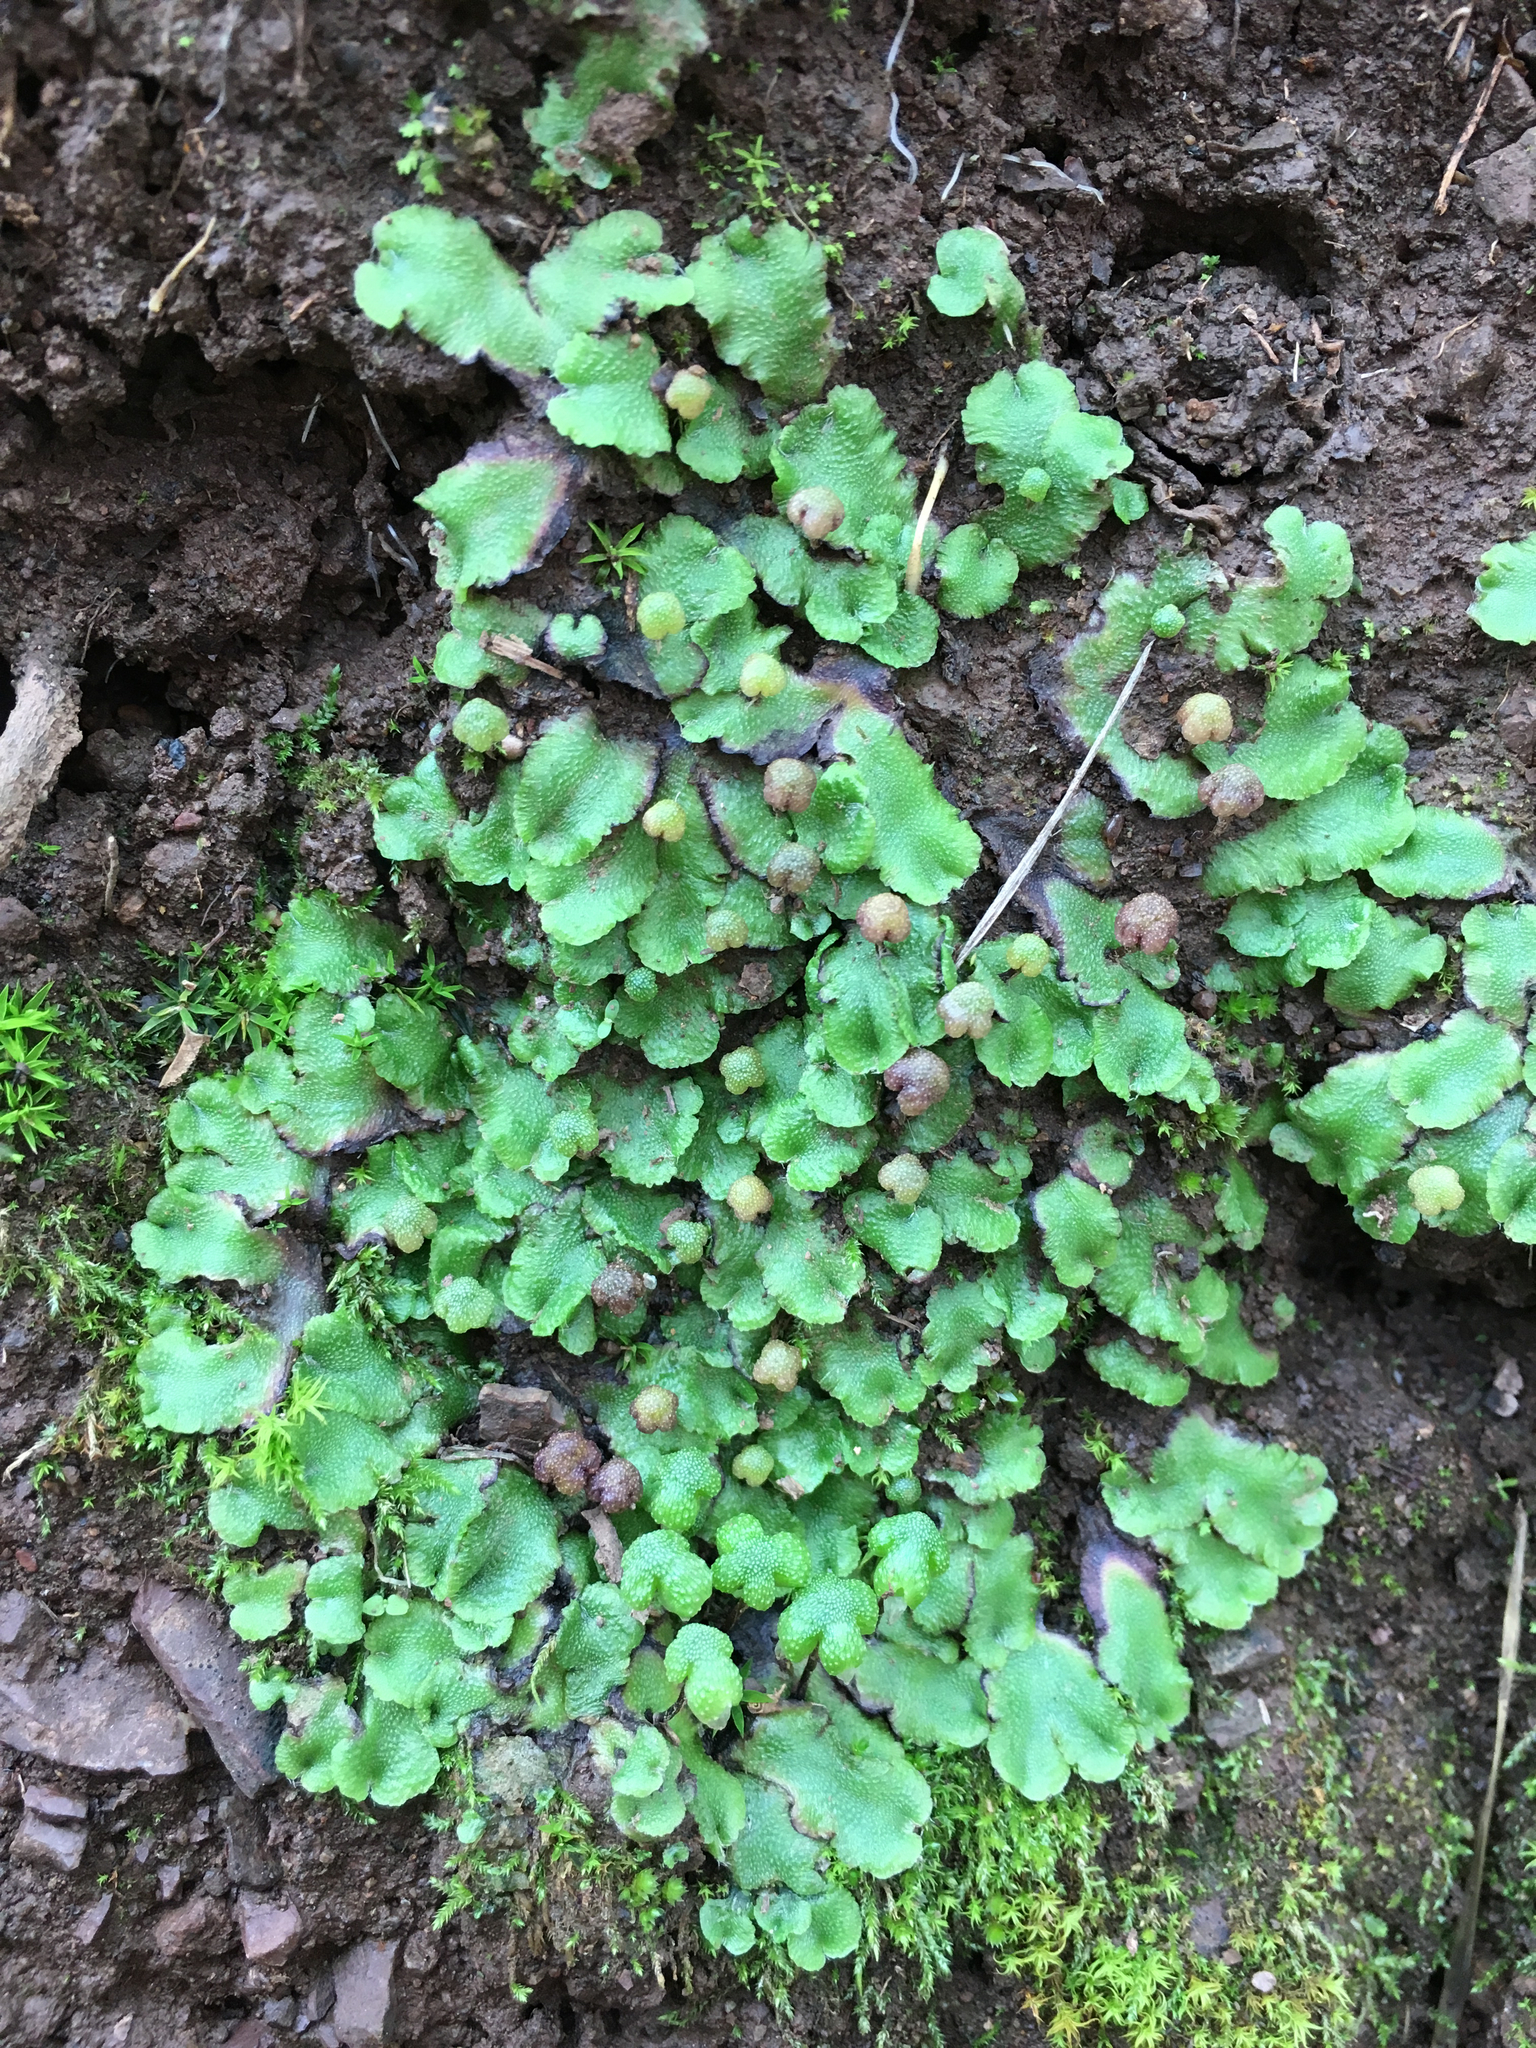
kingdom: Plantae
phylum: Marchantiophyta
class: Marchantiopsida
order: Marchantiales
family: Aytoniaceae
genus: Asterella
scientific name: Asterella californica
